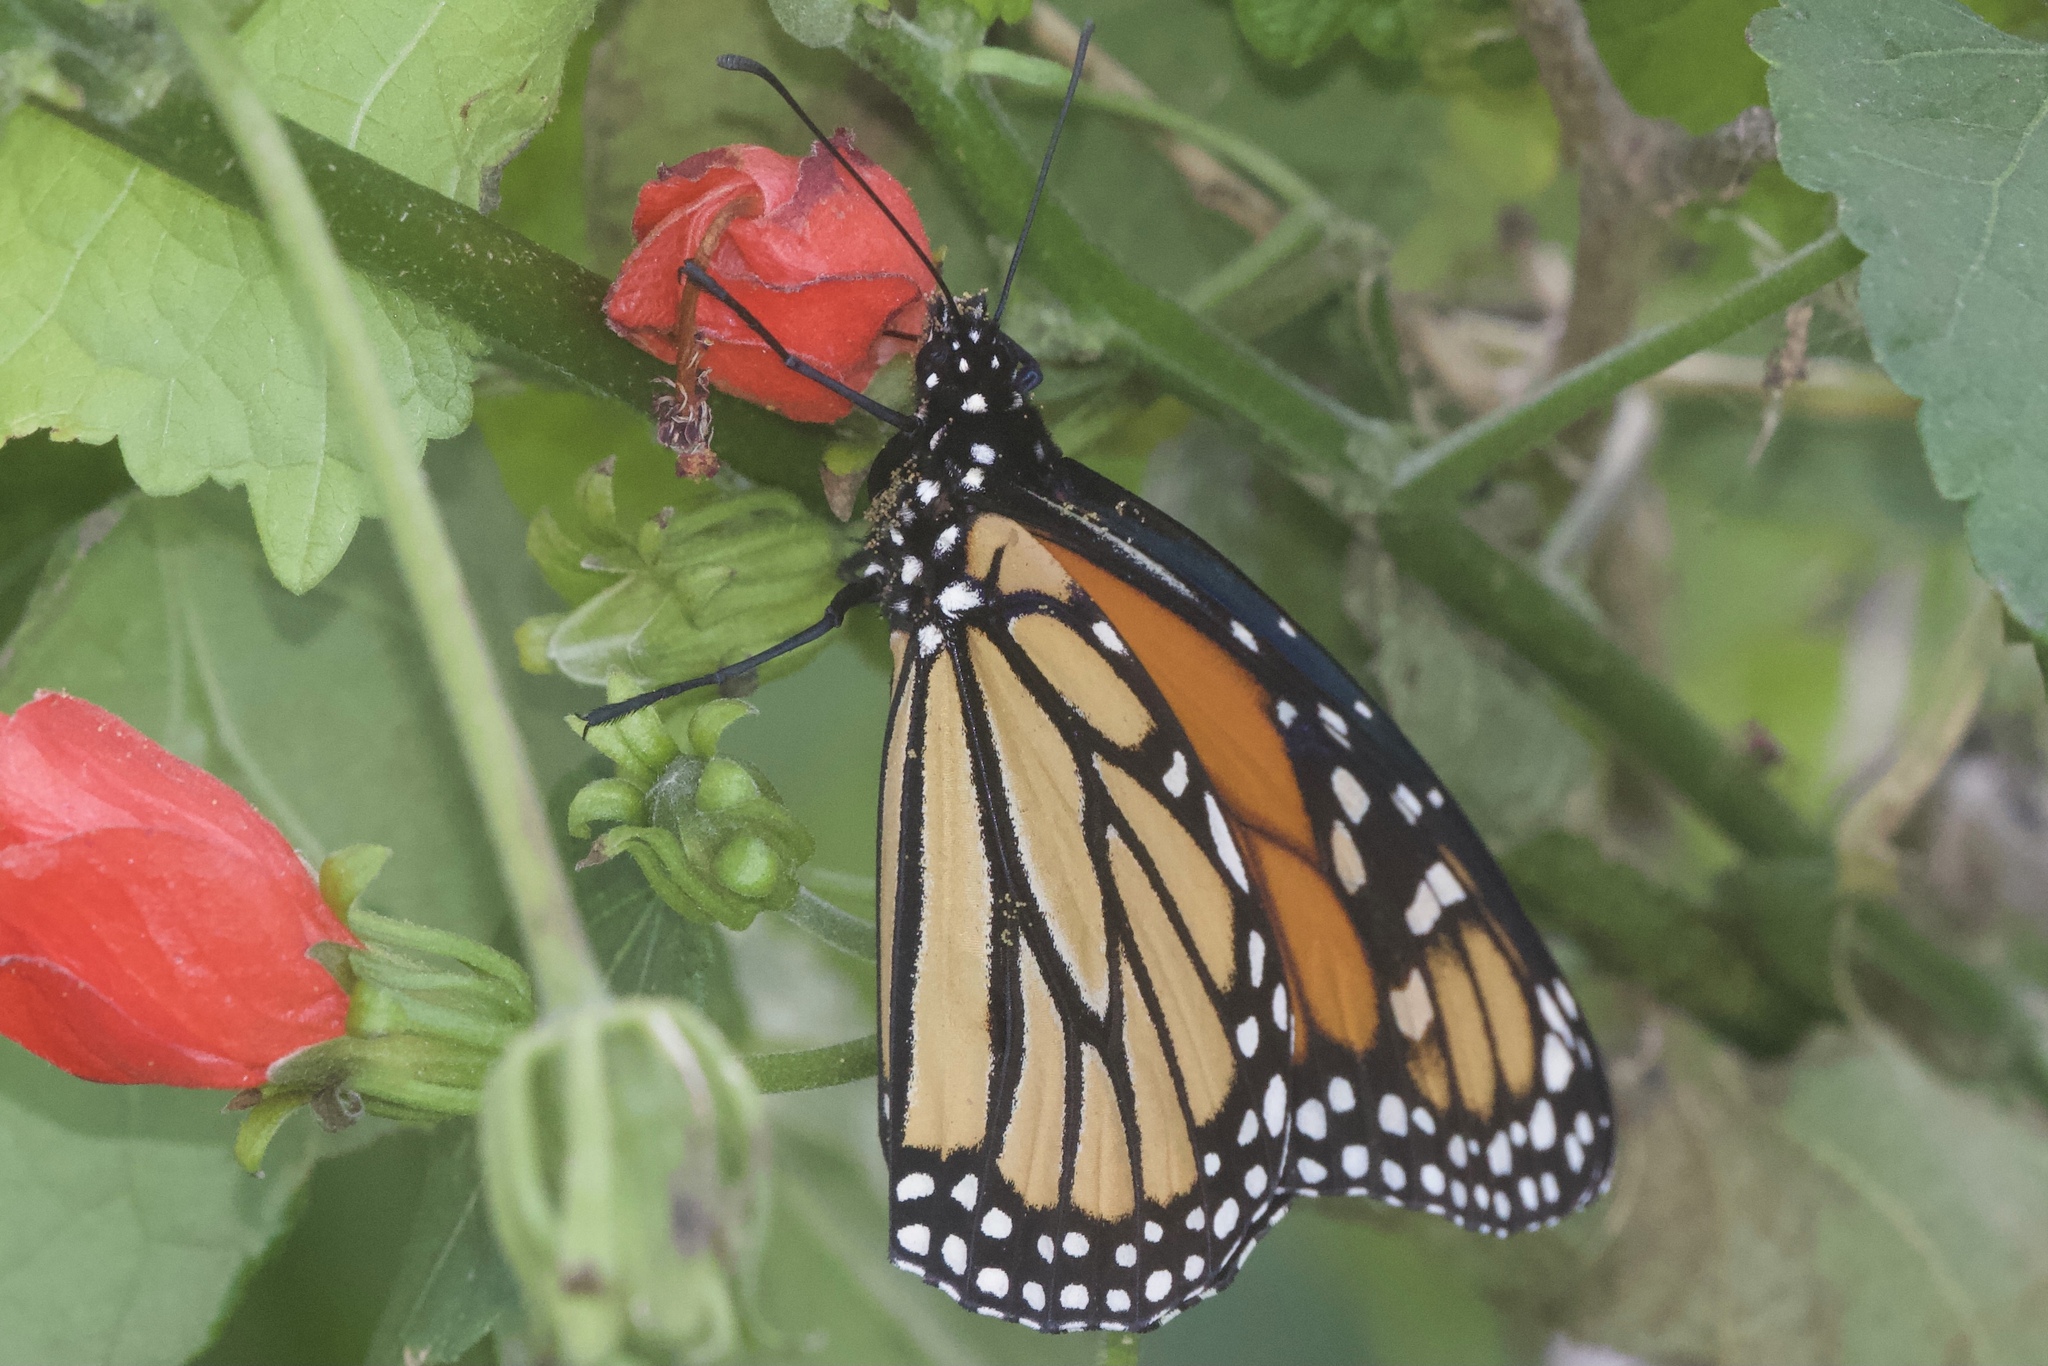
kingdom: Animalia
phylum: Arthropoda
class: Insecta
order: Lepidoptera
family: Nymphalidae
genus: Danaus
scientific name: Danaus plexippus
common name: Monarch
